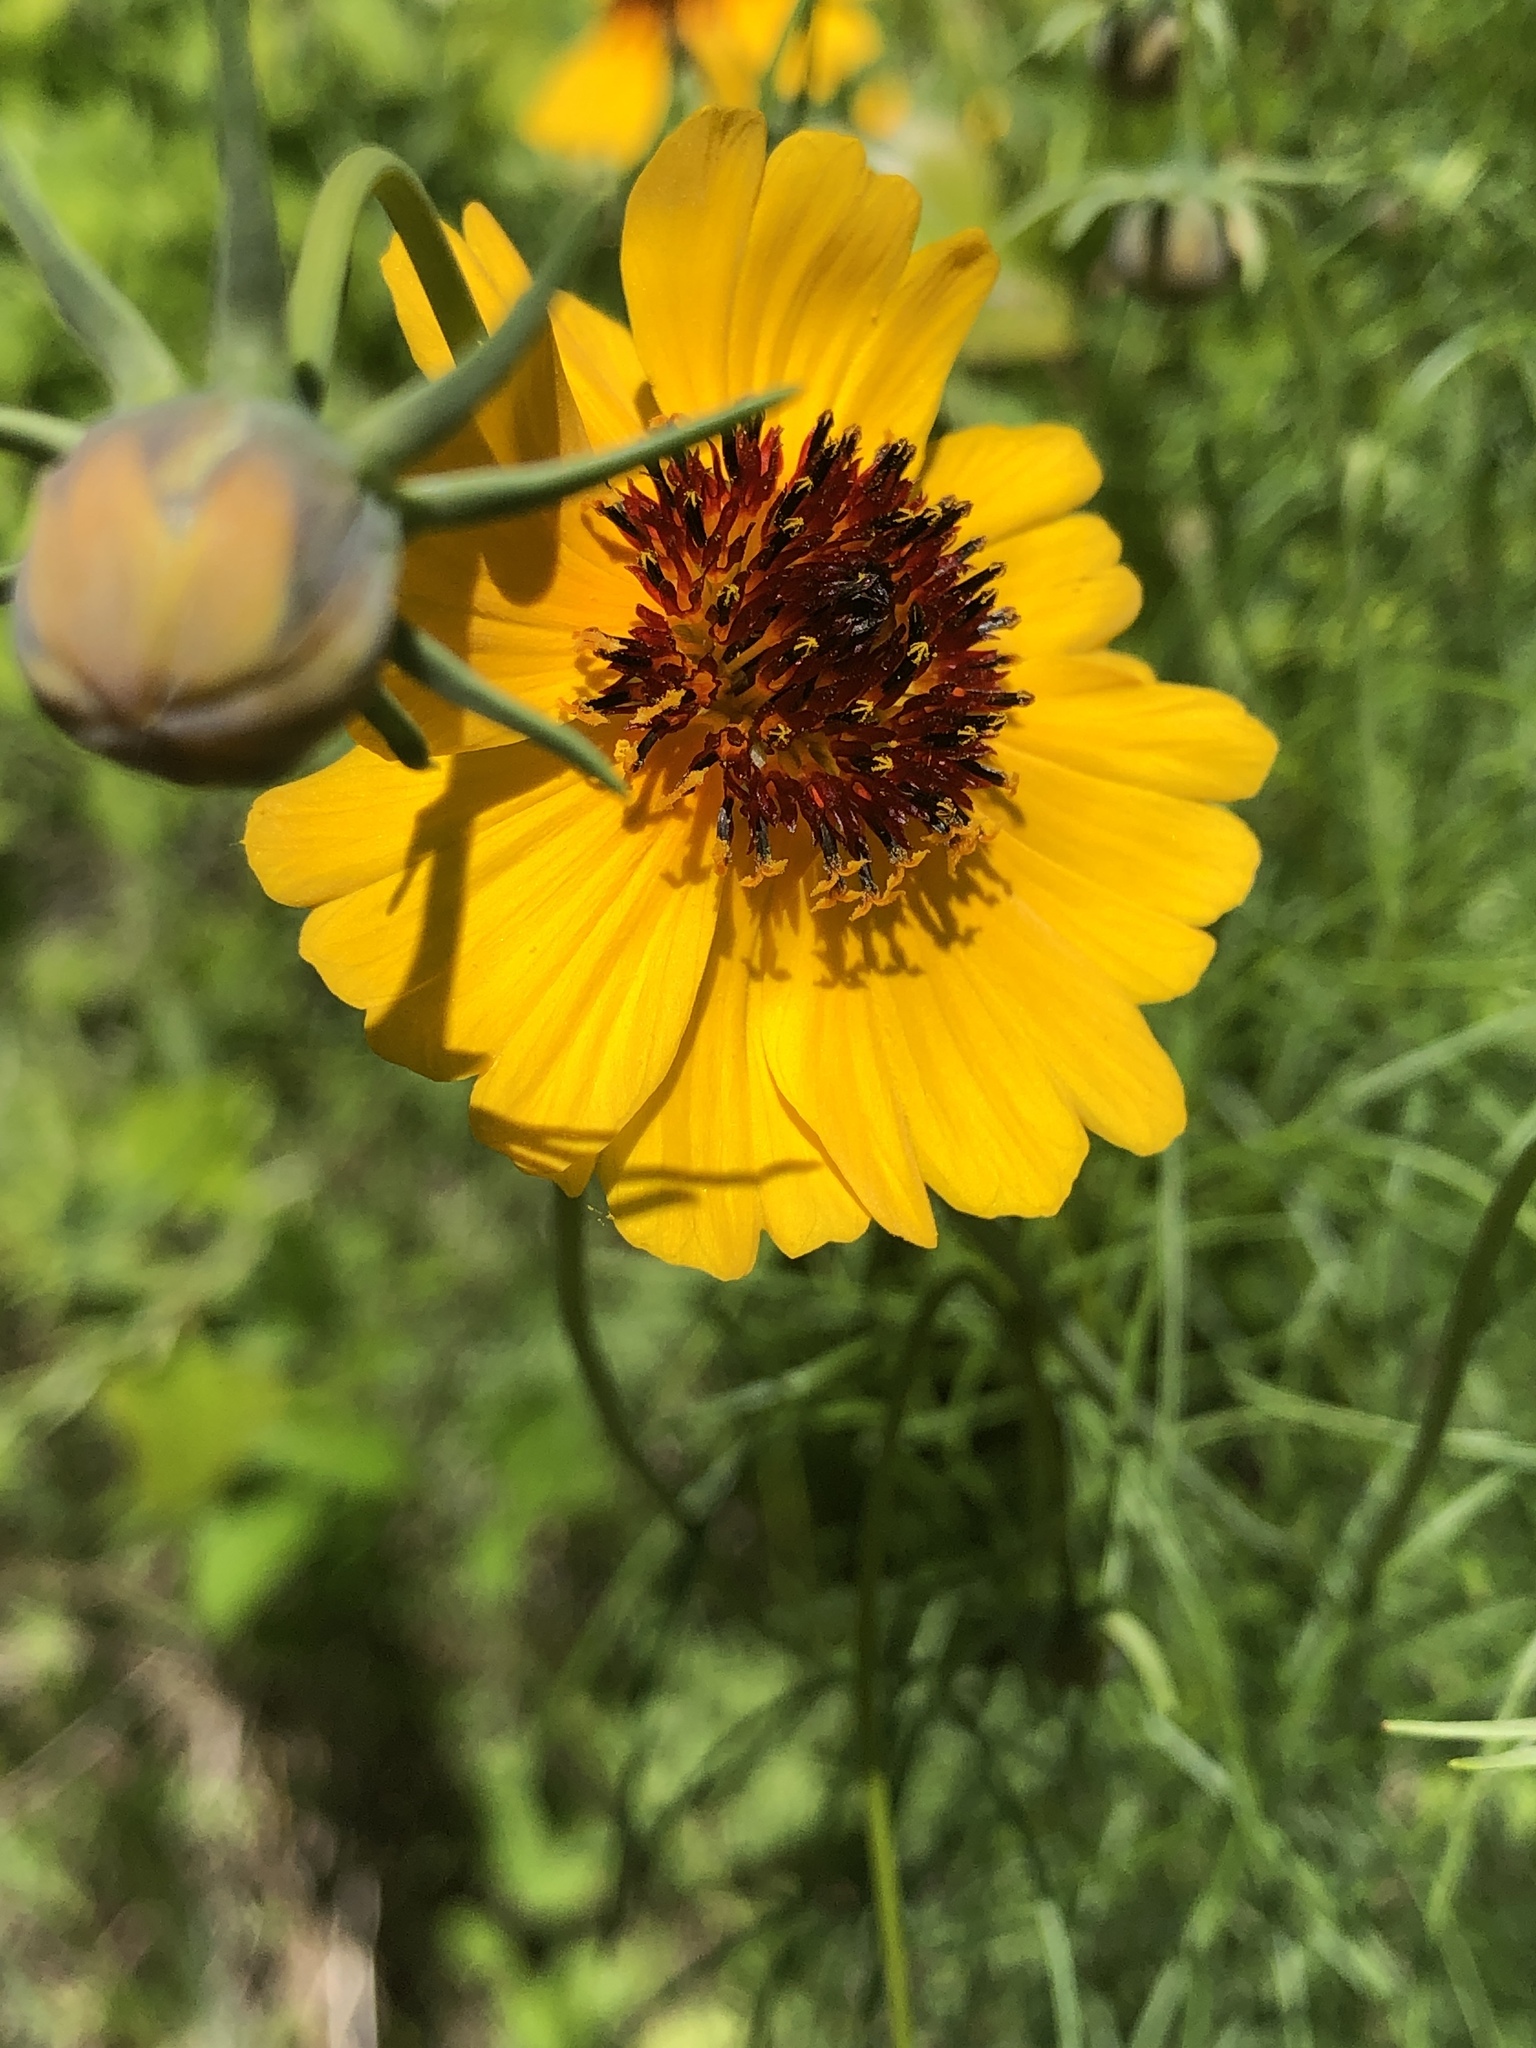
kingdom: Plantae
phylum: Tracheophyta
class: Magnoliopsida
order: Asterales
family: Asteraceae
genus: Thelesperma
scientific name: Thelesperma filifolium
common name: Stiff greenthread
